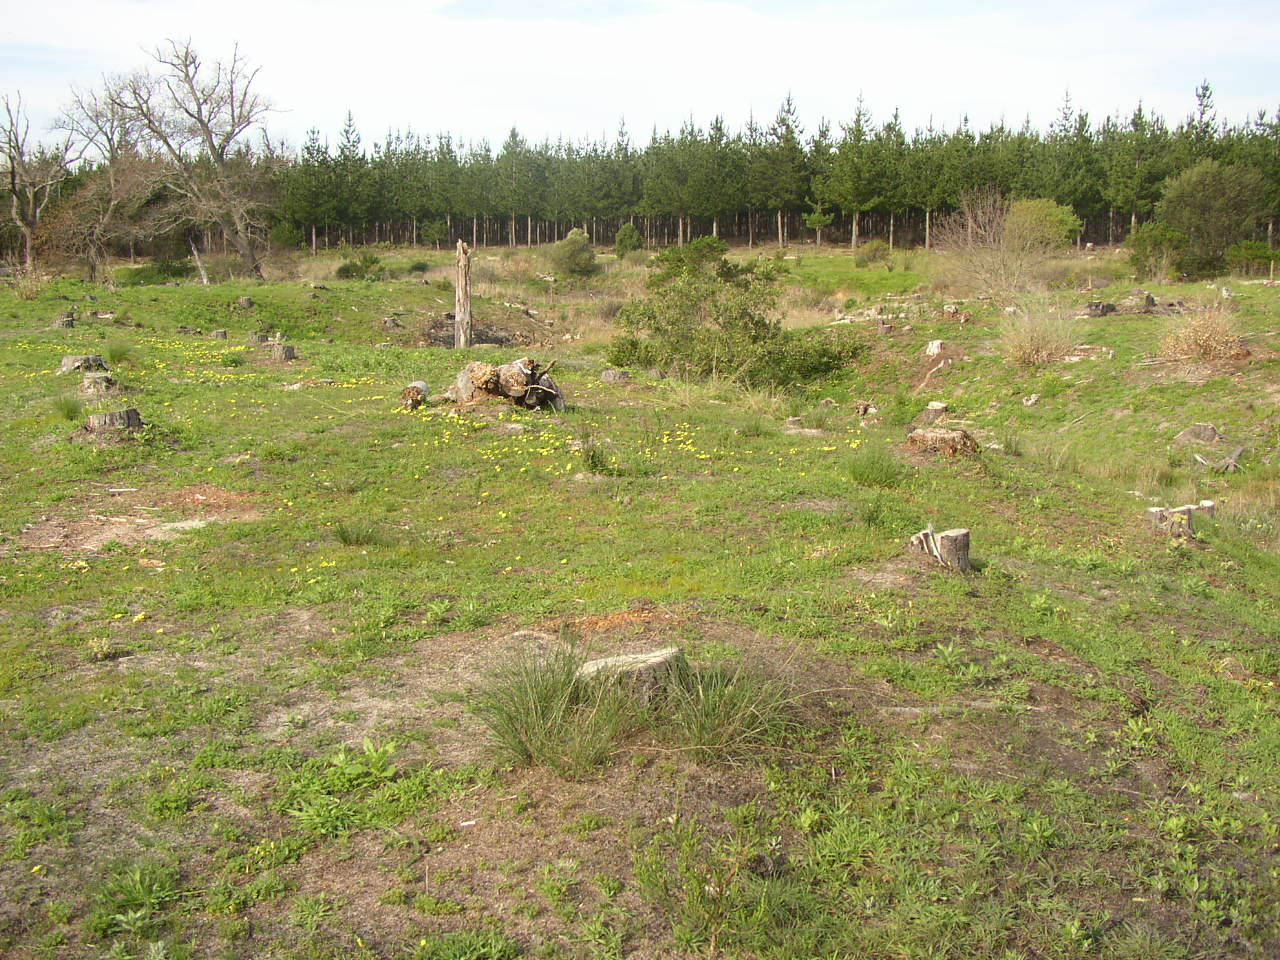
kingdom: Plantae
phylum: Tracheophyta
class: Magnoliopsida
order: Oxalidales
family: Oxalidaceae
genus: Oxalis
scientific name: Oxalis luteola
